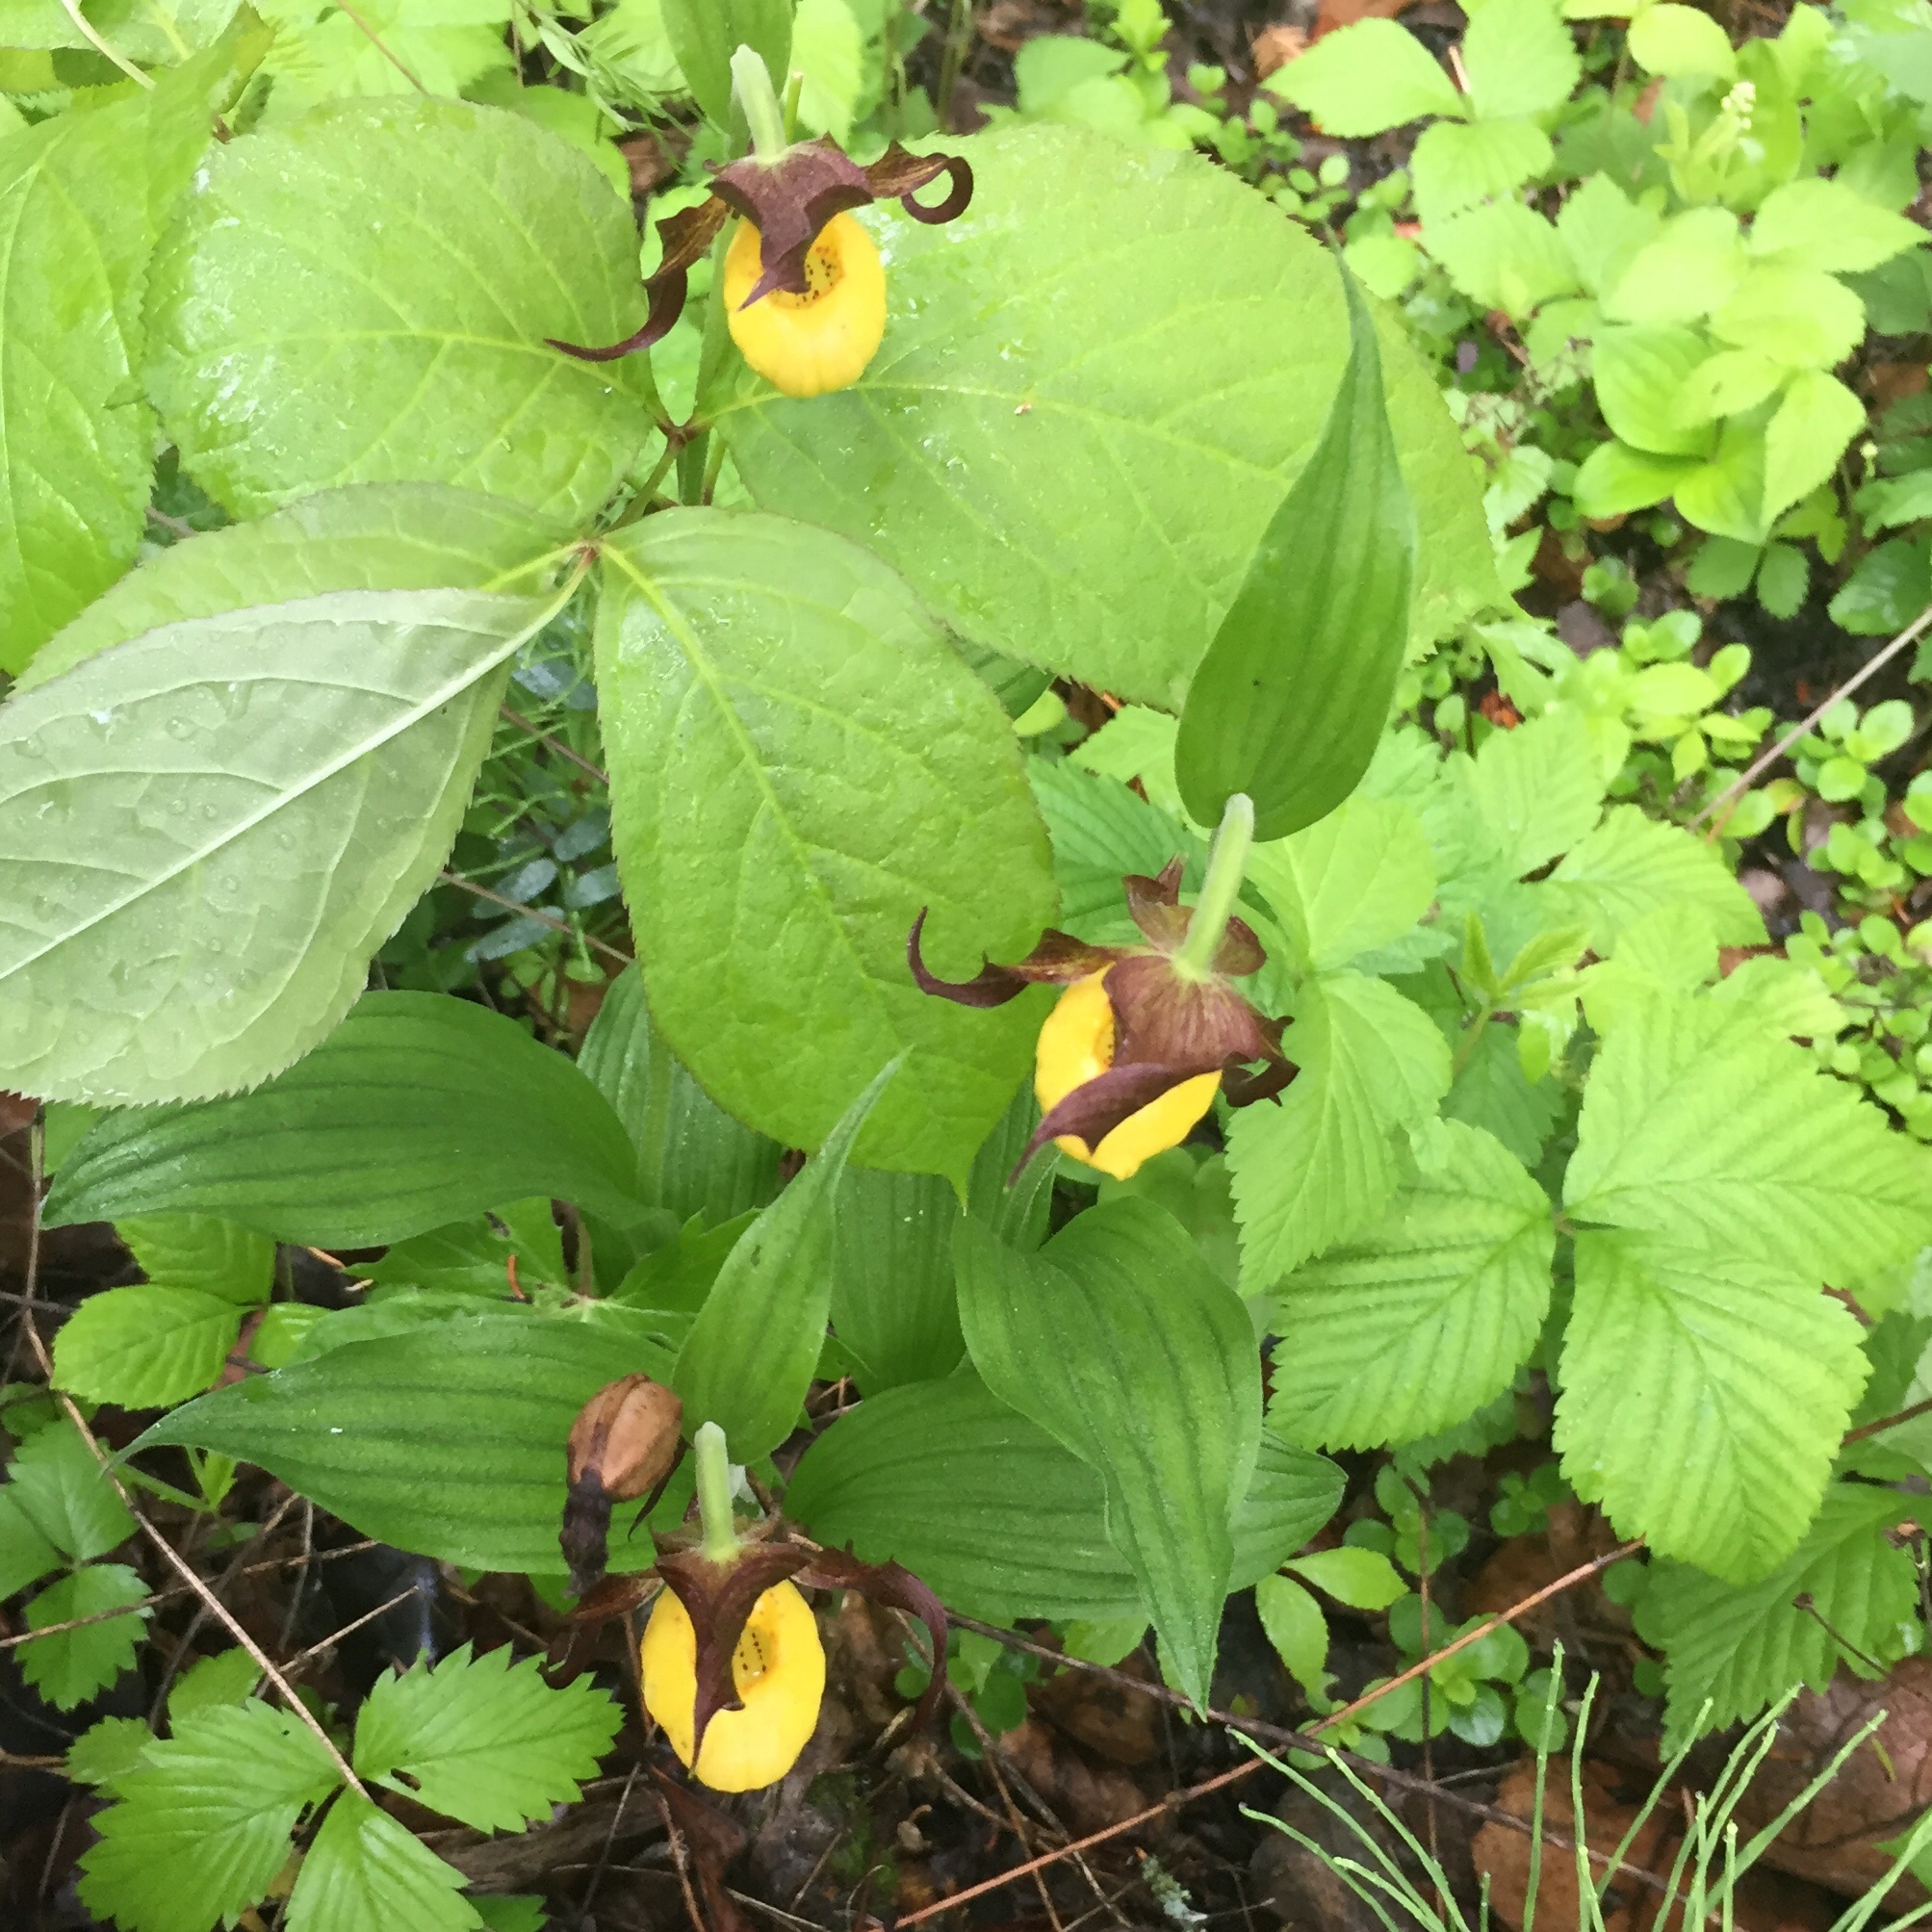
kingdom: Plantae
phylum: Tracheophyta
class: Liliopsida
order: Asparagales
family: Orchidaceae
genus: Cypripedium
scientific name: Cypripedium parviflorum
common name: American yellow lady's-slipper
